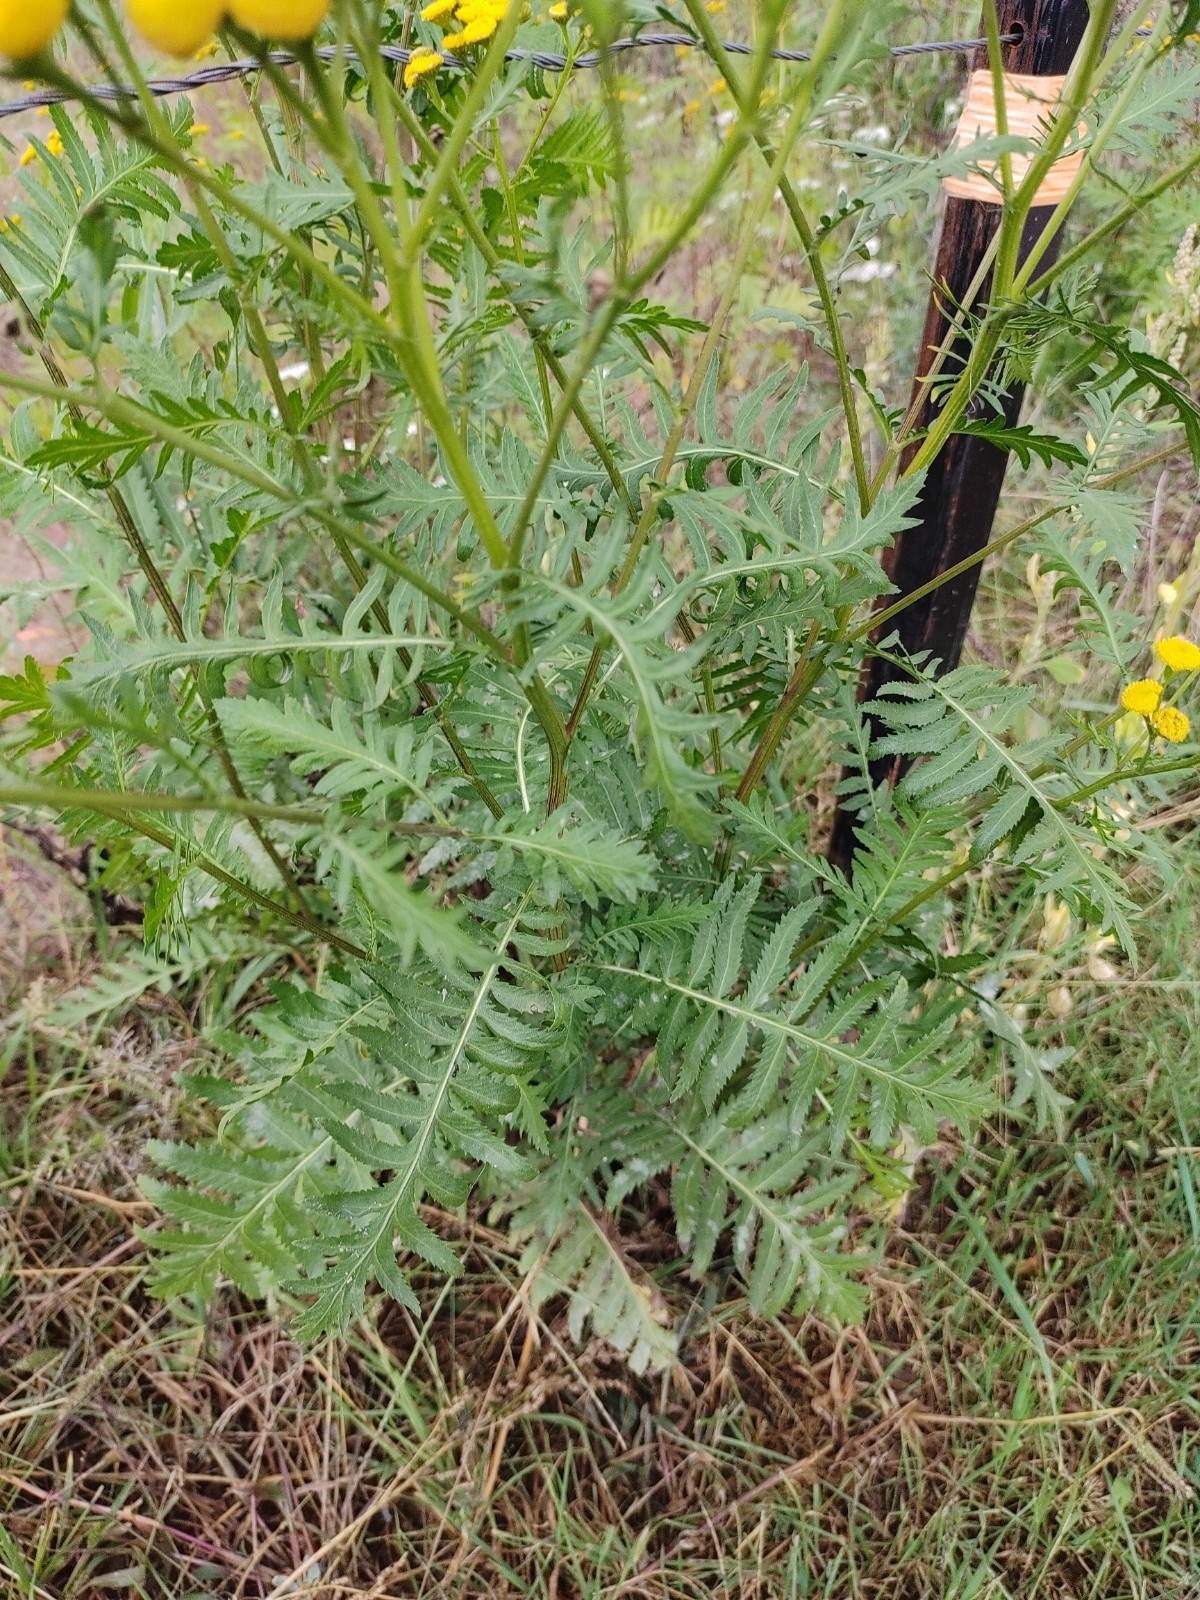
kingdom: Plantae
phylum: Tracheophyta
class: Magnoliopsida
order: Asterales
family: Asteraceae
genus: Tanacetum
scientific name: Tanacetum vulgare
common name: Common tansy
